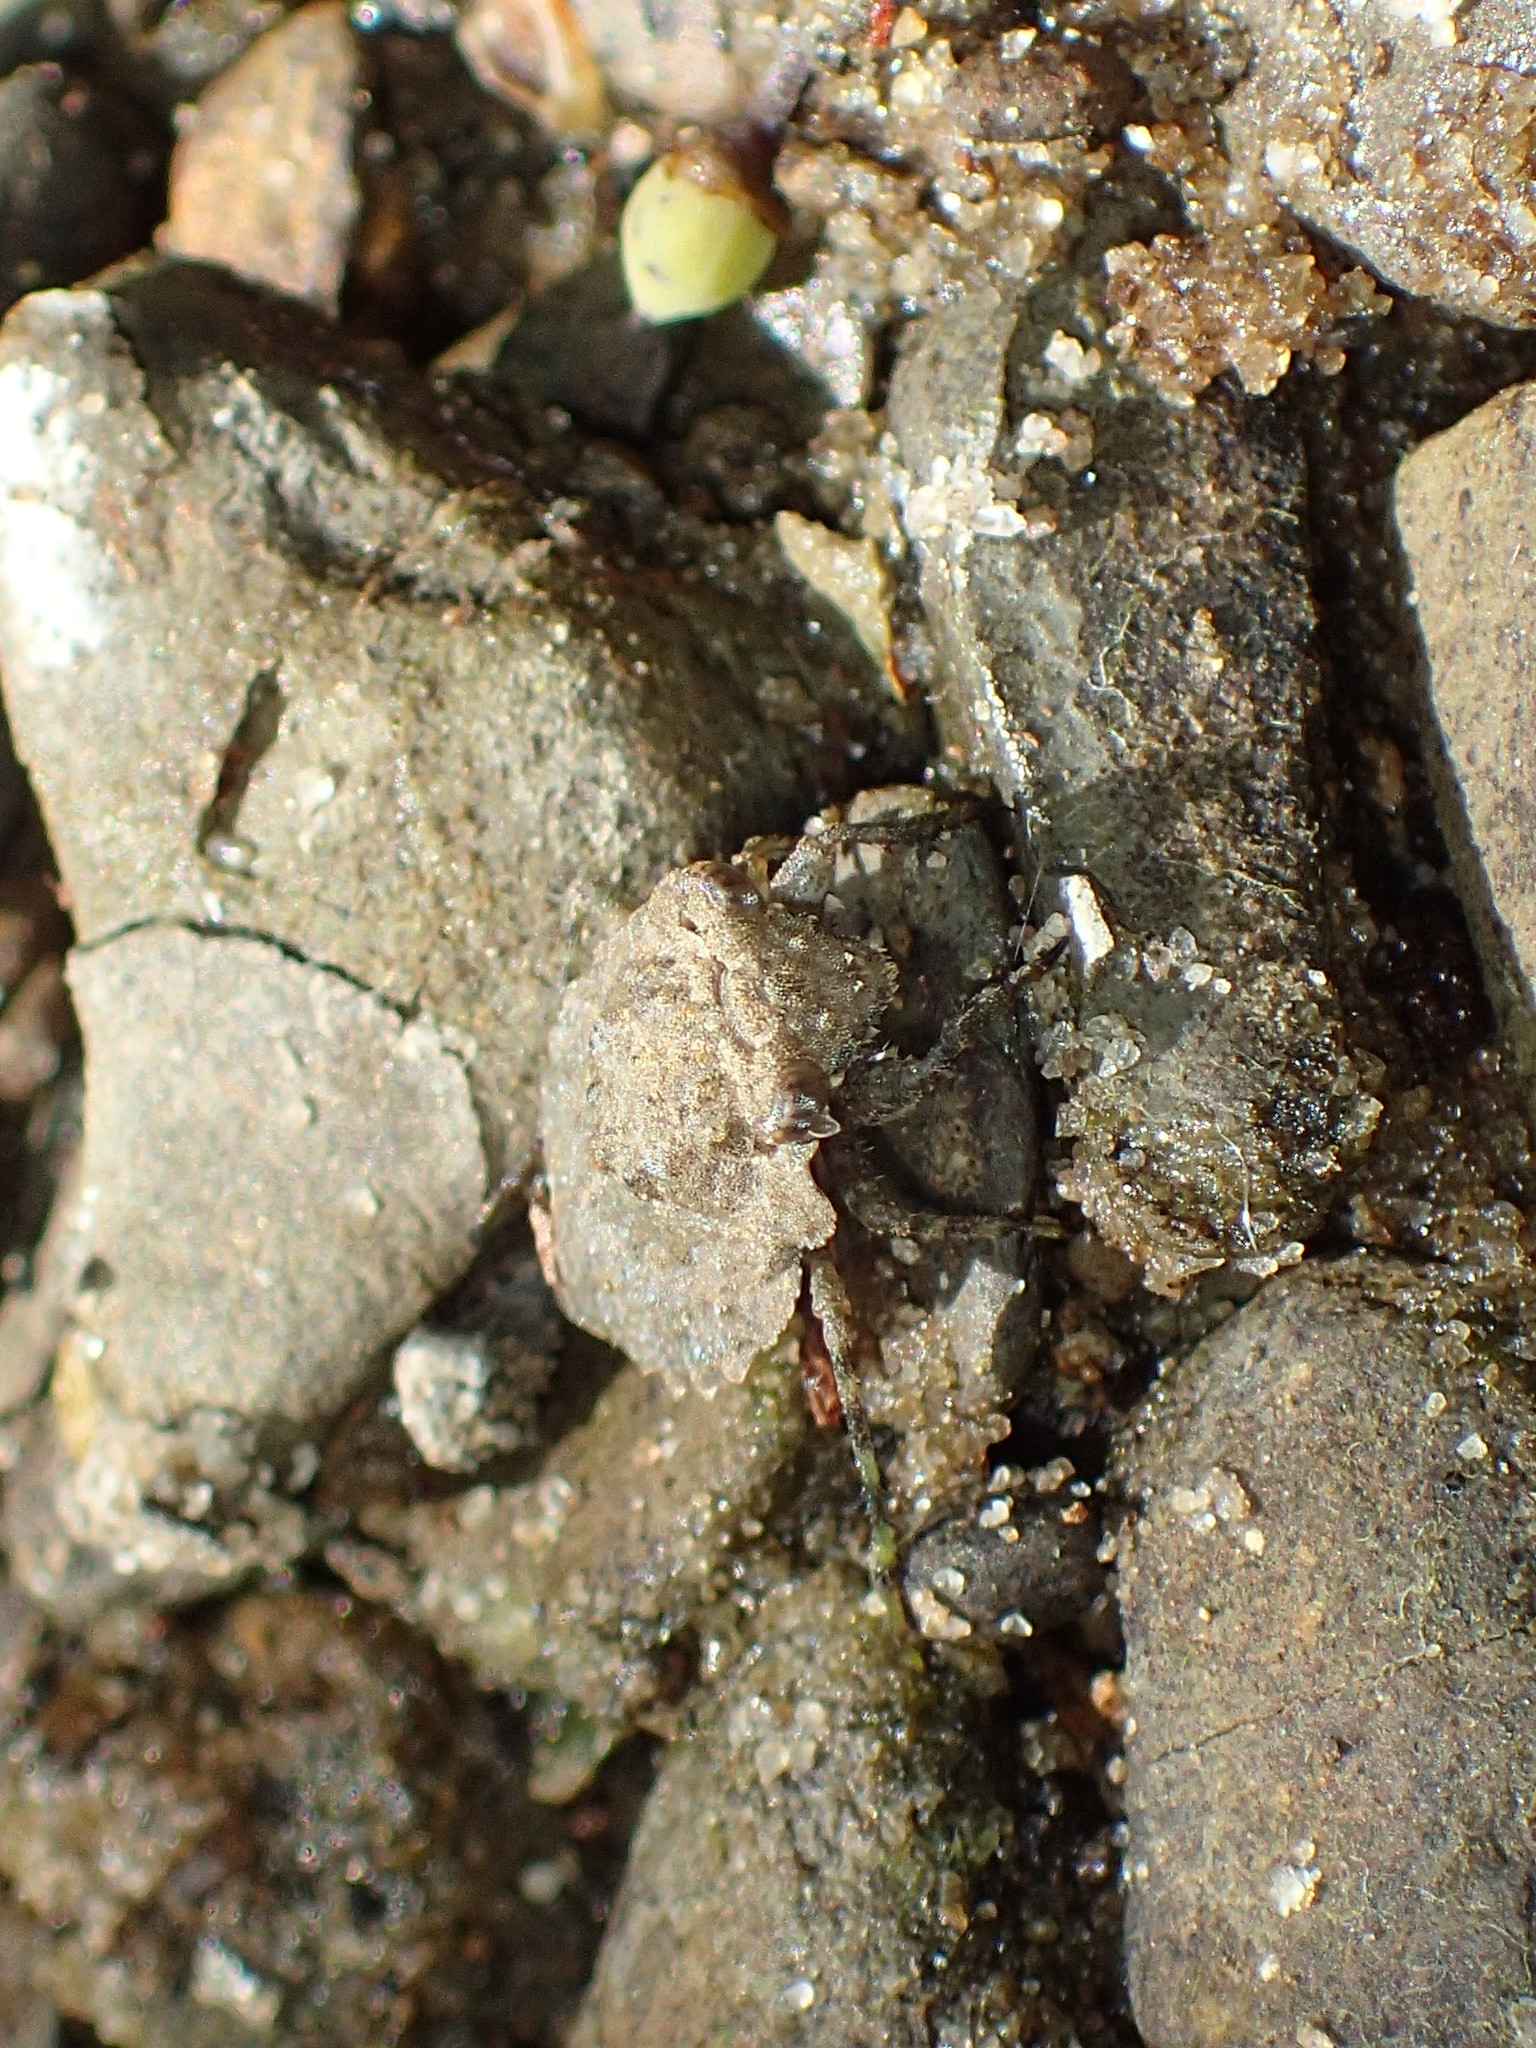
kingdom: Animalia
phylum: Arthropoda
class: Insecta
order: Hemiptera
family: Gelastocoridae
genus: Gelastocoris
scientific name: Gelastocoris oculatus
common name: Toad bug
